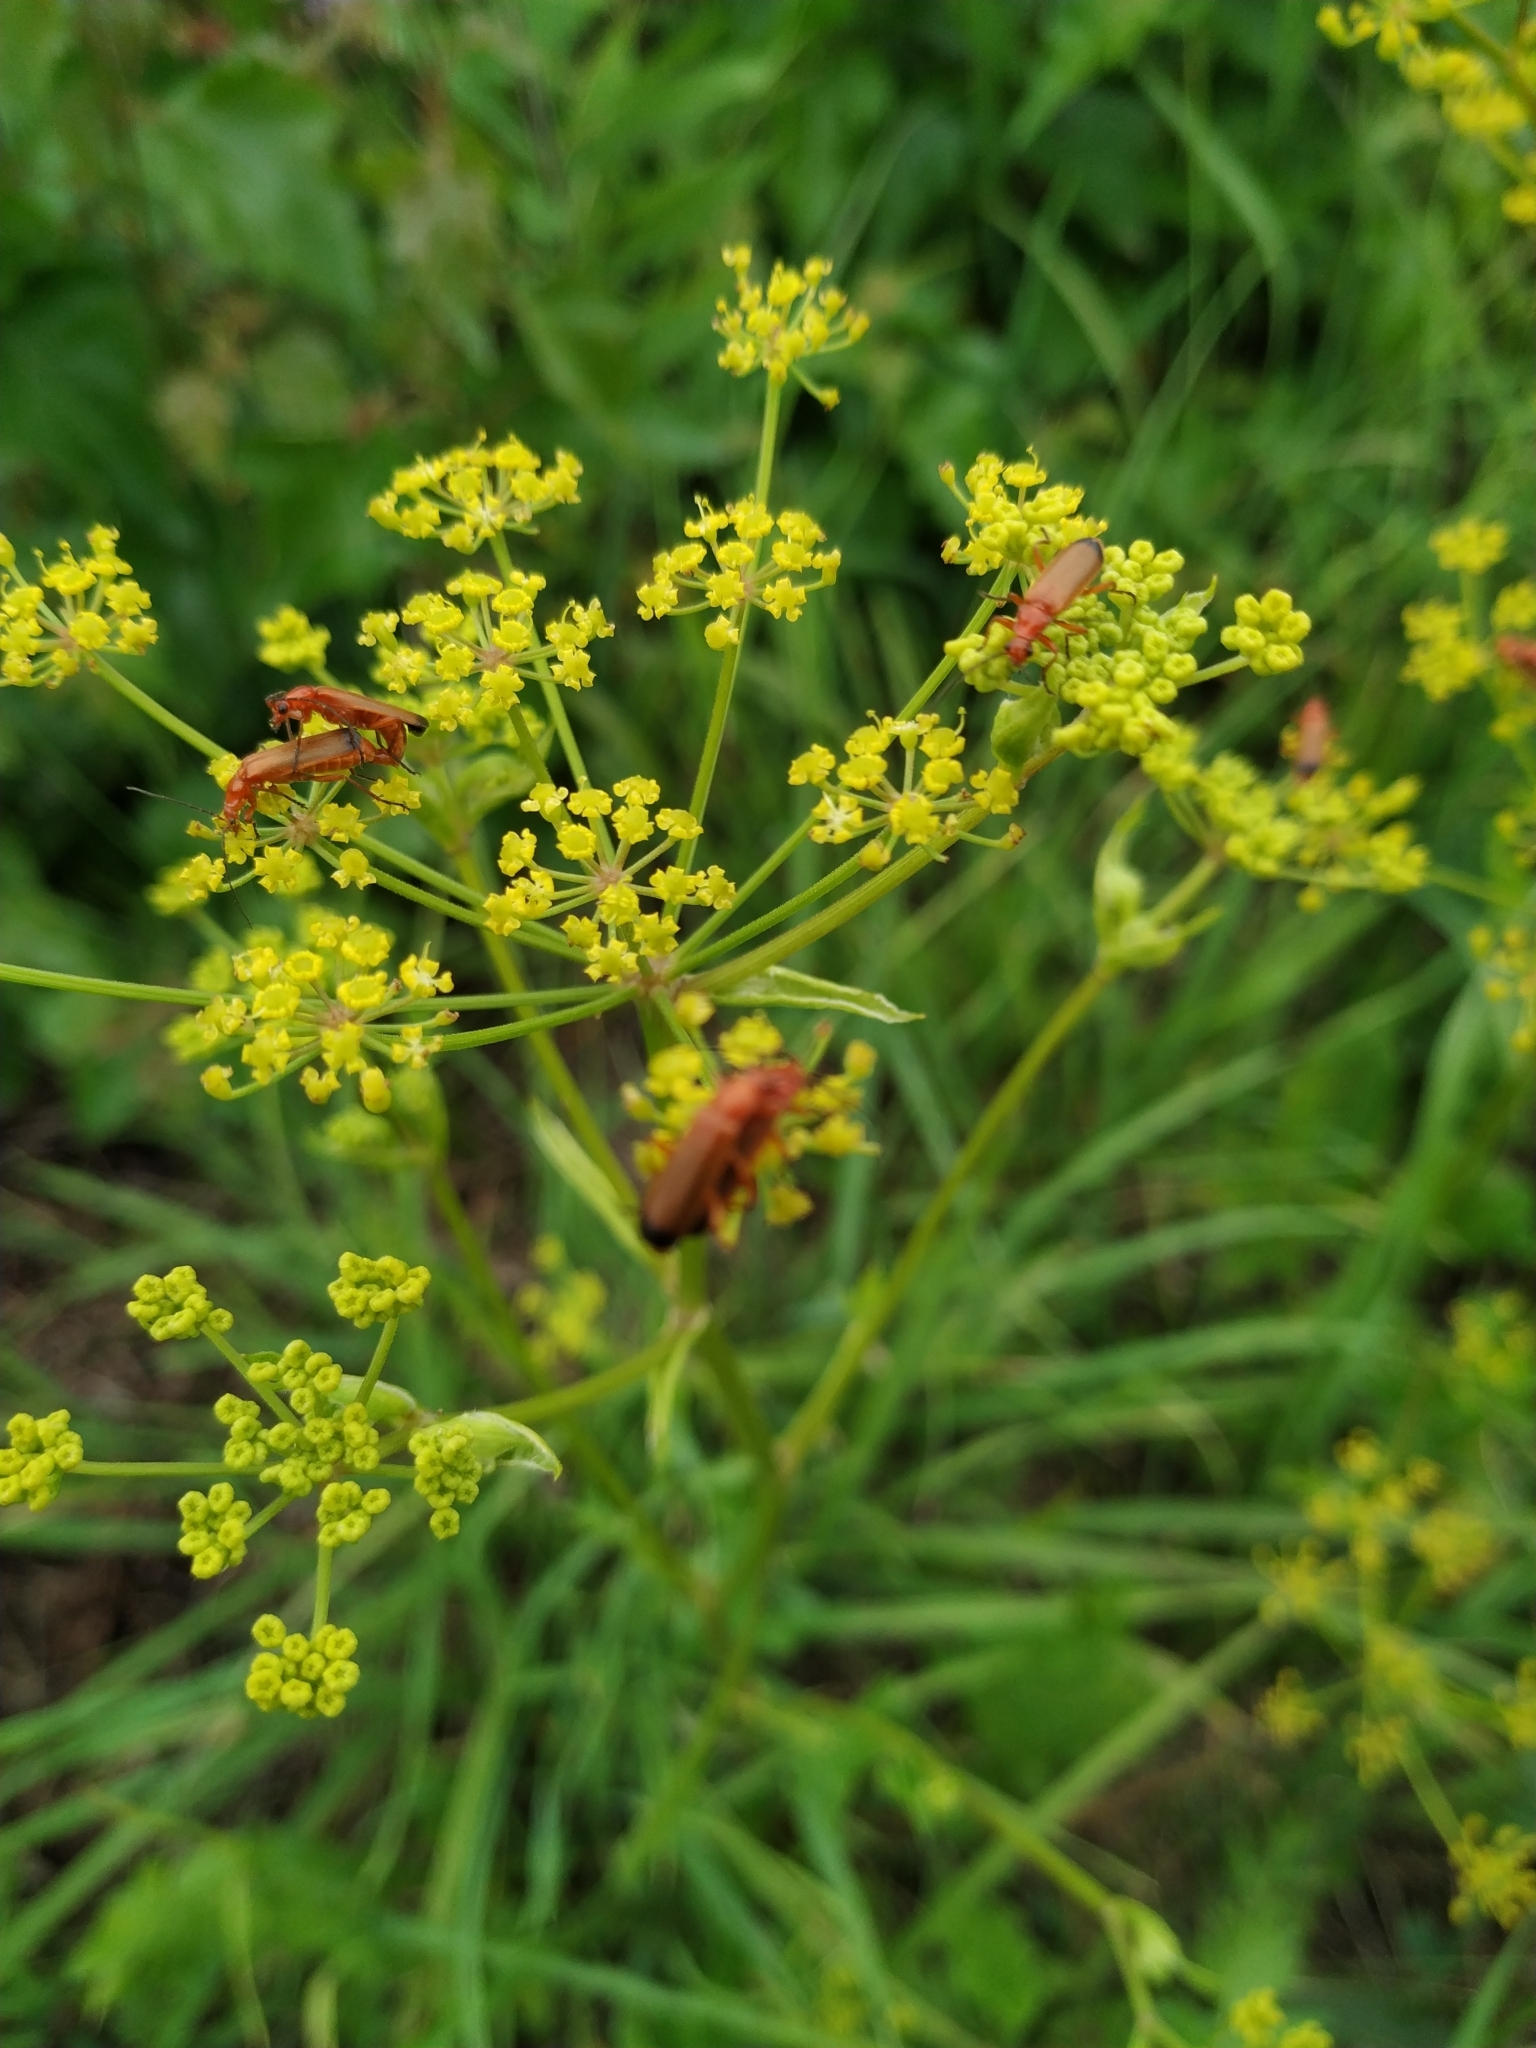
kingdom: Animalia
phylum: Arthropoda
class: Insecta
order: Coleoptera
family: Cantharidae
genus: Rhagonycha
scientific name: Rhagonycha fulva
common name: Common red soldier beetle
